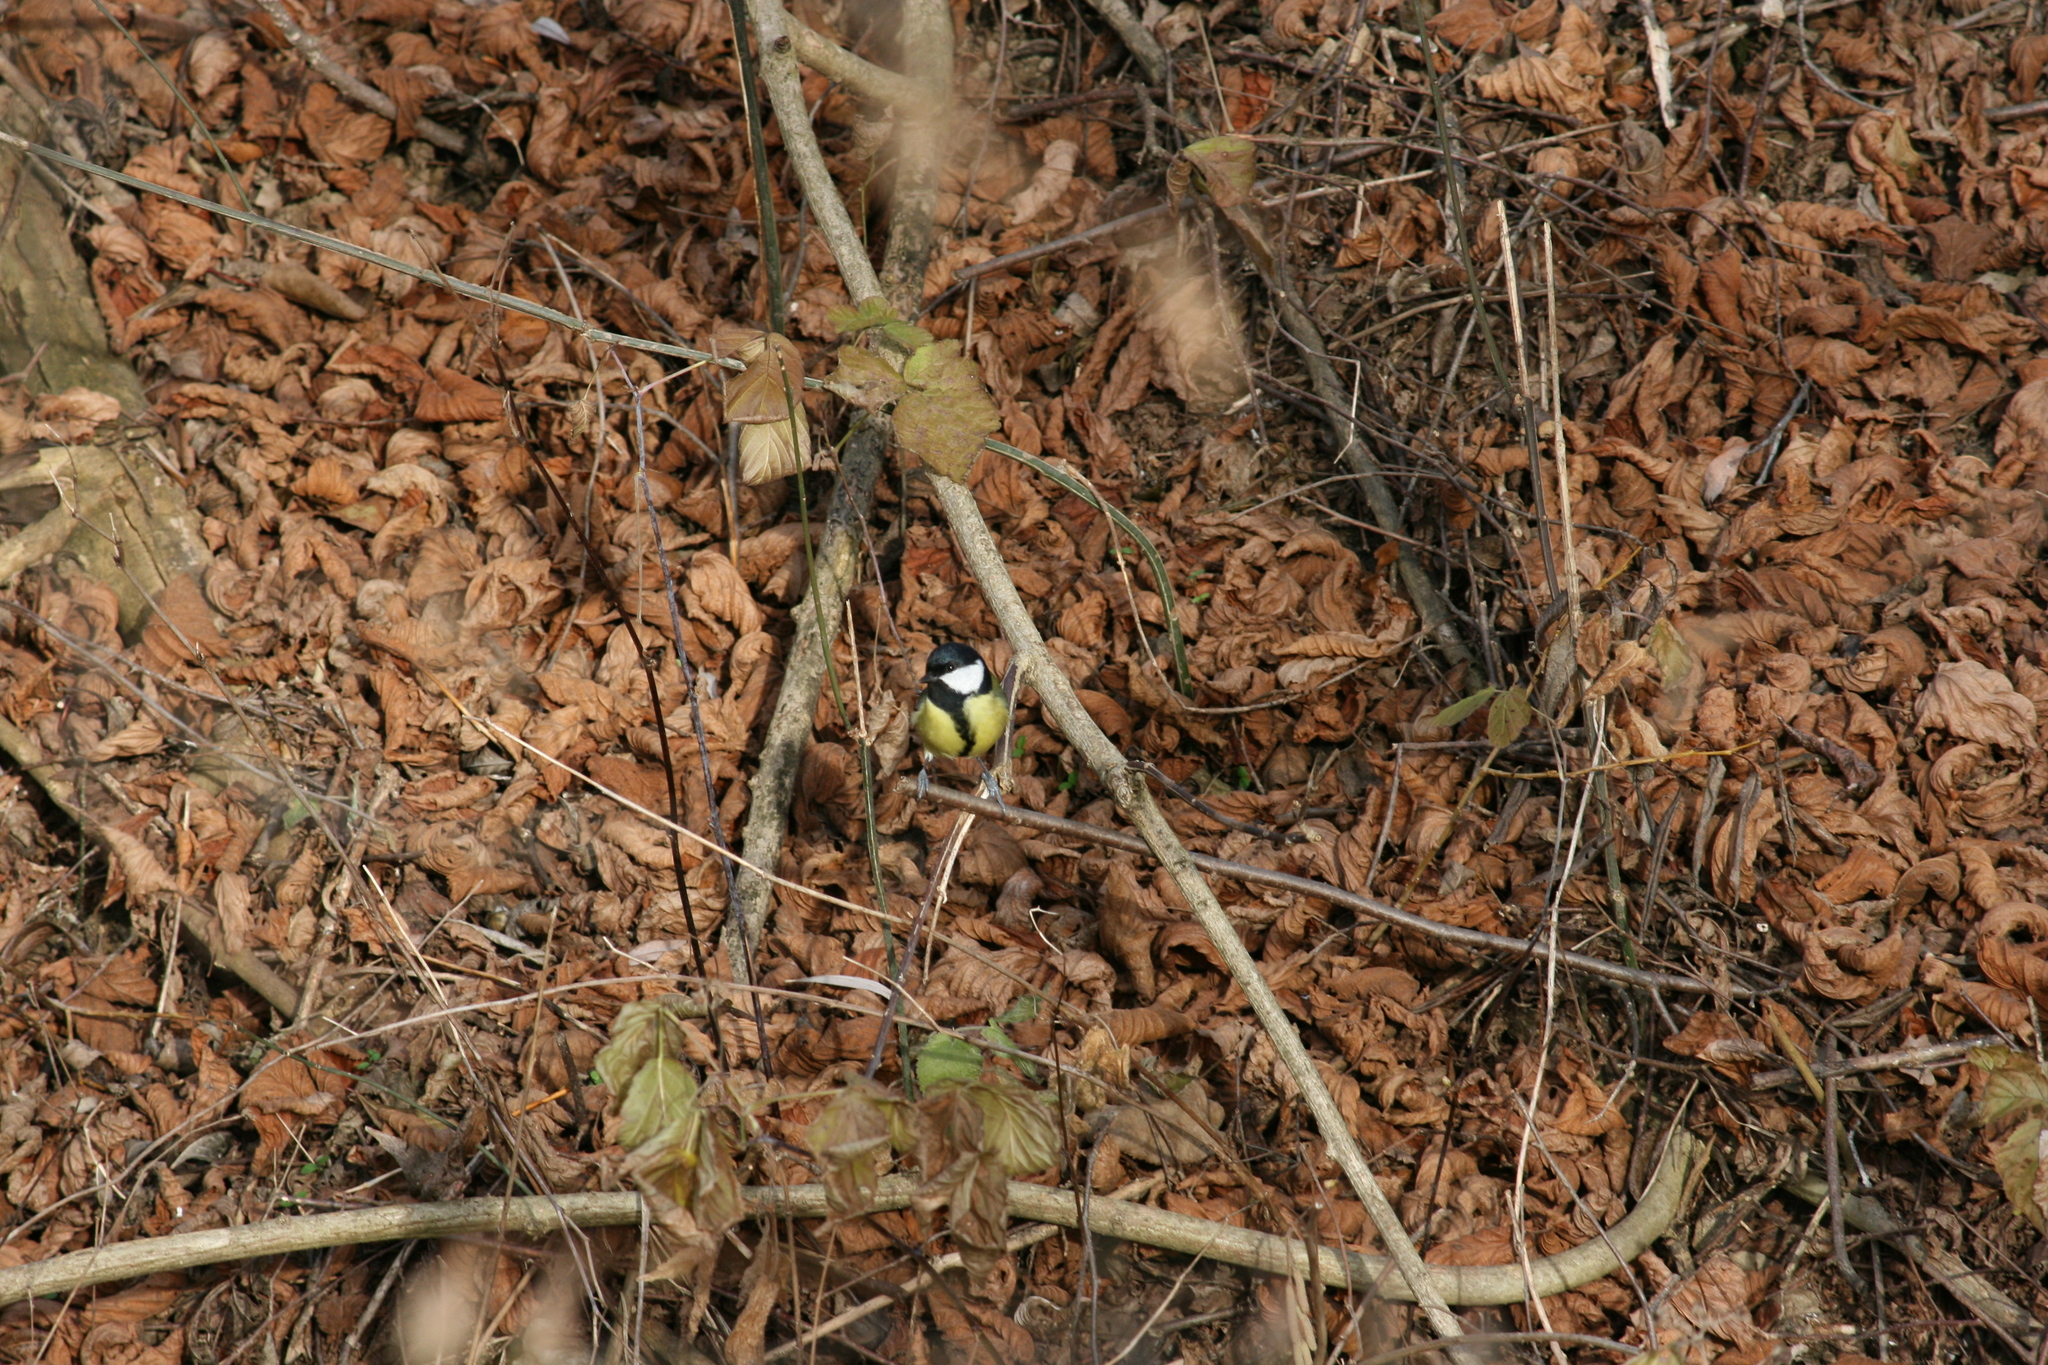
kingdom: Animalia
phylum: Chordata
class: Aves
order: Passeriformes
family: Paridae
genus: Parus
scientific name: Parus major
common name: Great tit
